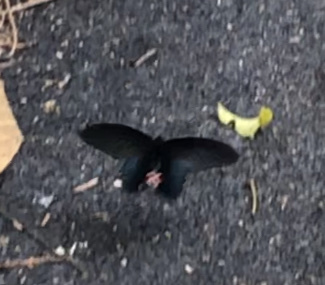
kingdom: Animalia
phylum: Arthropoda
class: Insecta
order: Lepidoptera
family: Papilionidae
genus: Papilio
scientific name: Papilio protenor
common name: Spangle
